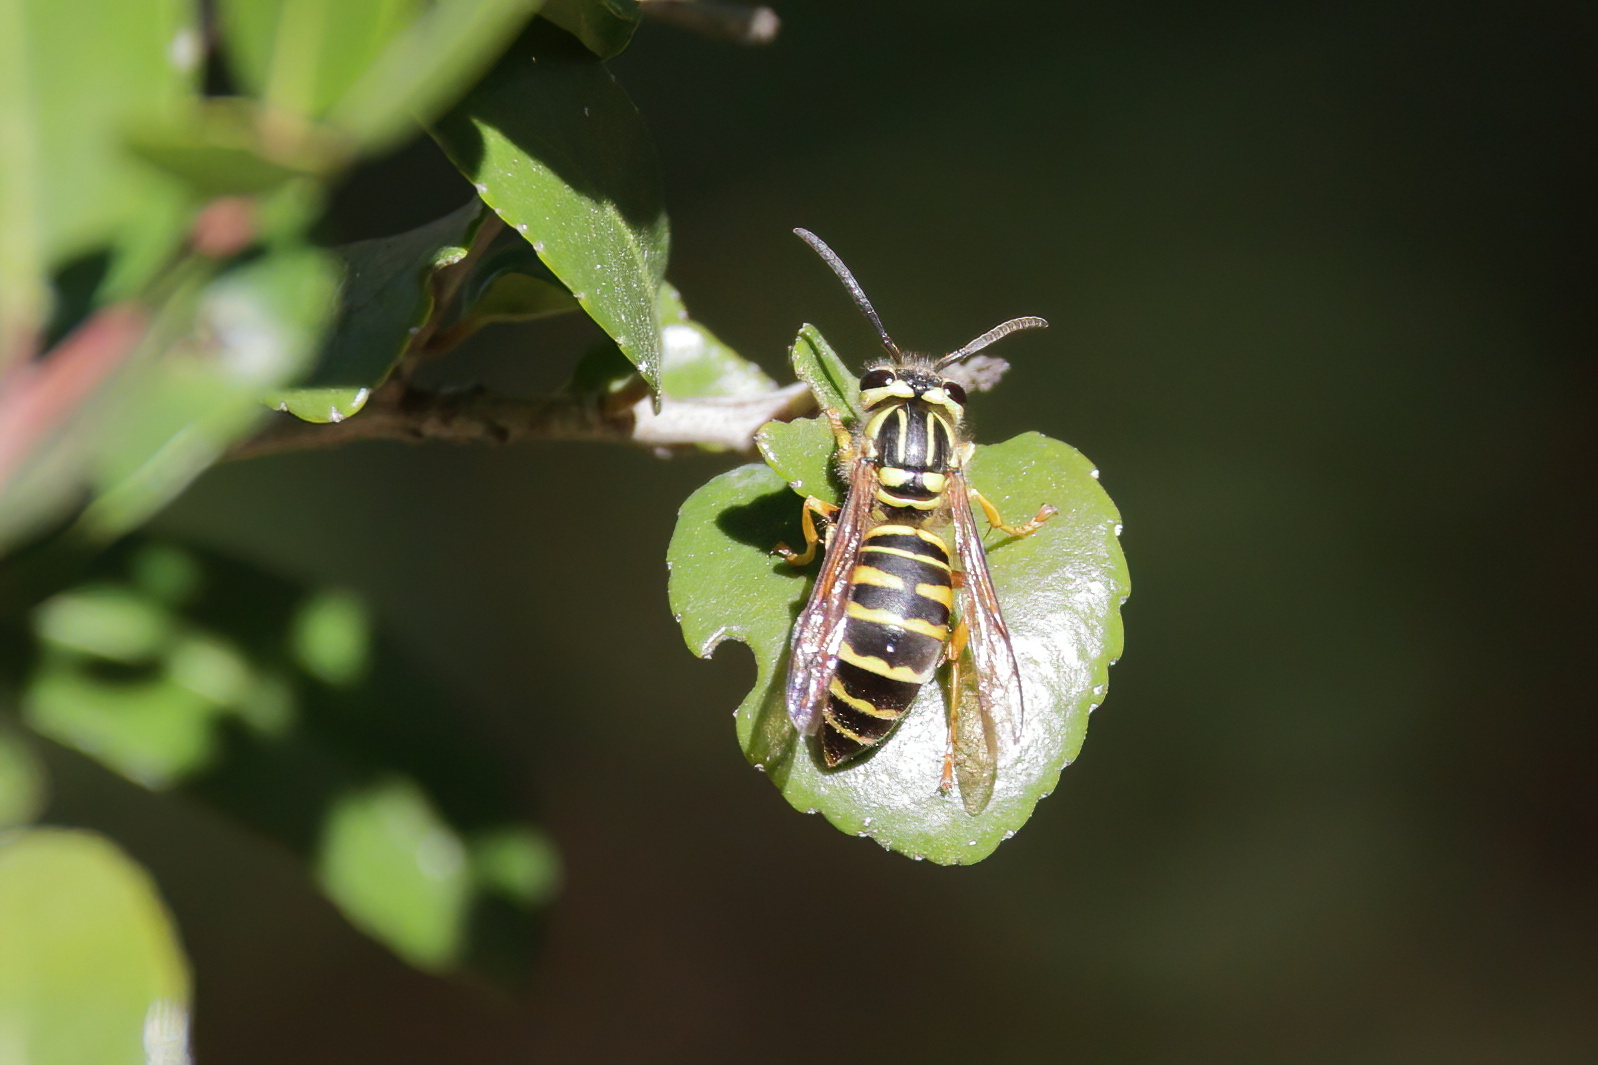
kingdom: Animalia
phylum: Arthropoda
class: Insecta
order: Hymenoptera
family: Vespidae
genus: Vespula
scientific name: Vespula squamosa
